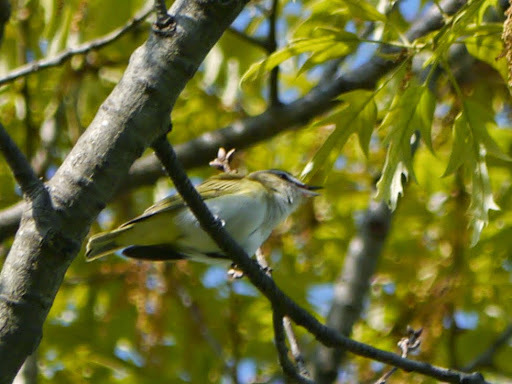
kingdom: Animalia
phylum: Chordata
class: Aves
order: Passeriformes
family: Vireonidae
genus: Vireo
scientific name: Vireo olivaceus
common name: Red-eyed vireo
